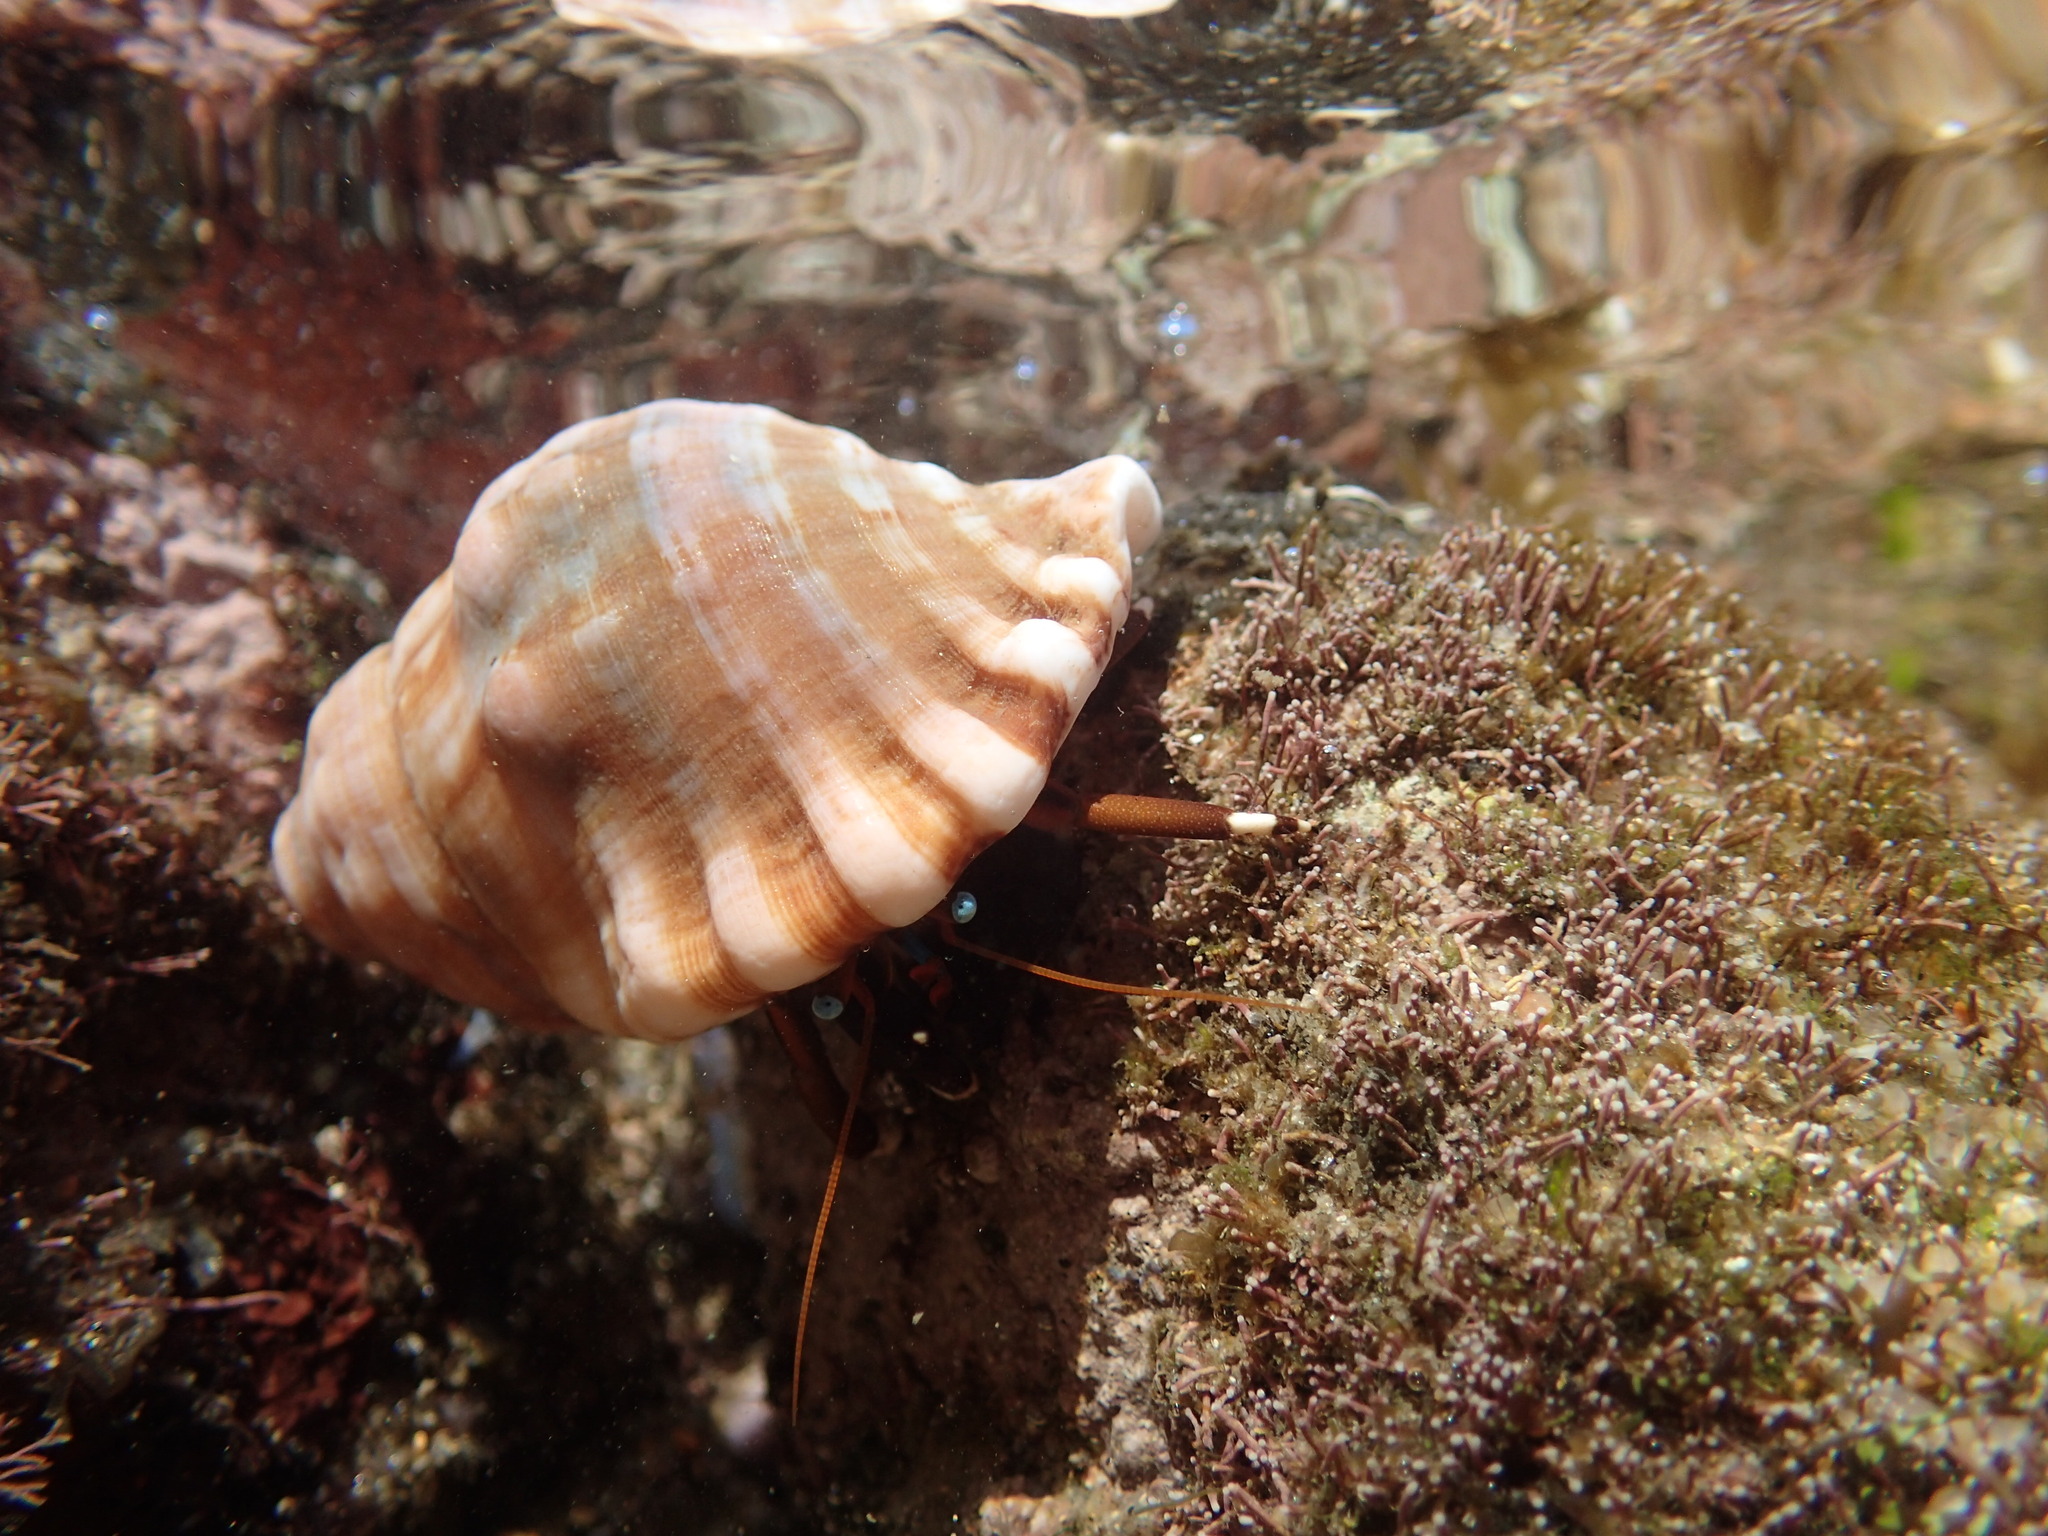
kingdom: Animalia
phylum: Arthropoda
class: Malacostraca
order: Decapoda
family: Diogenidae
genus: Calcinus
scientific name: Calcinus laevimanus
